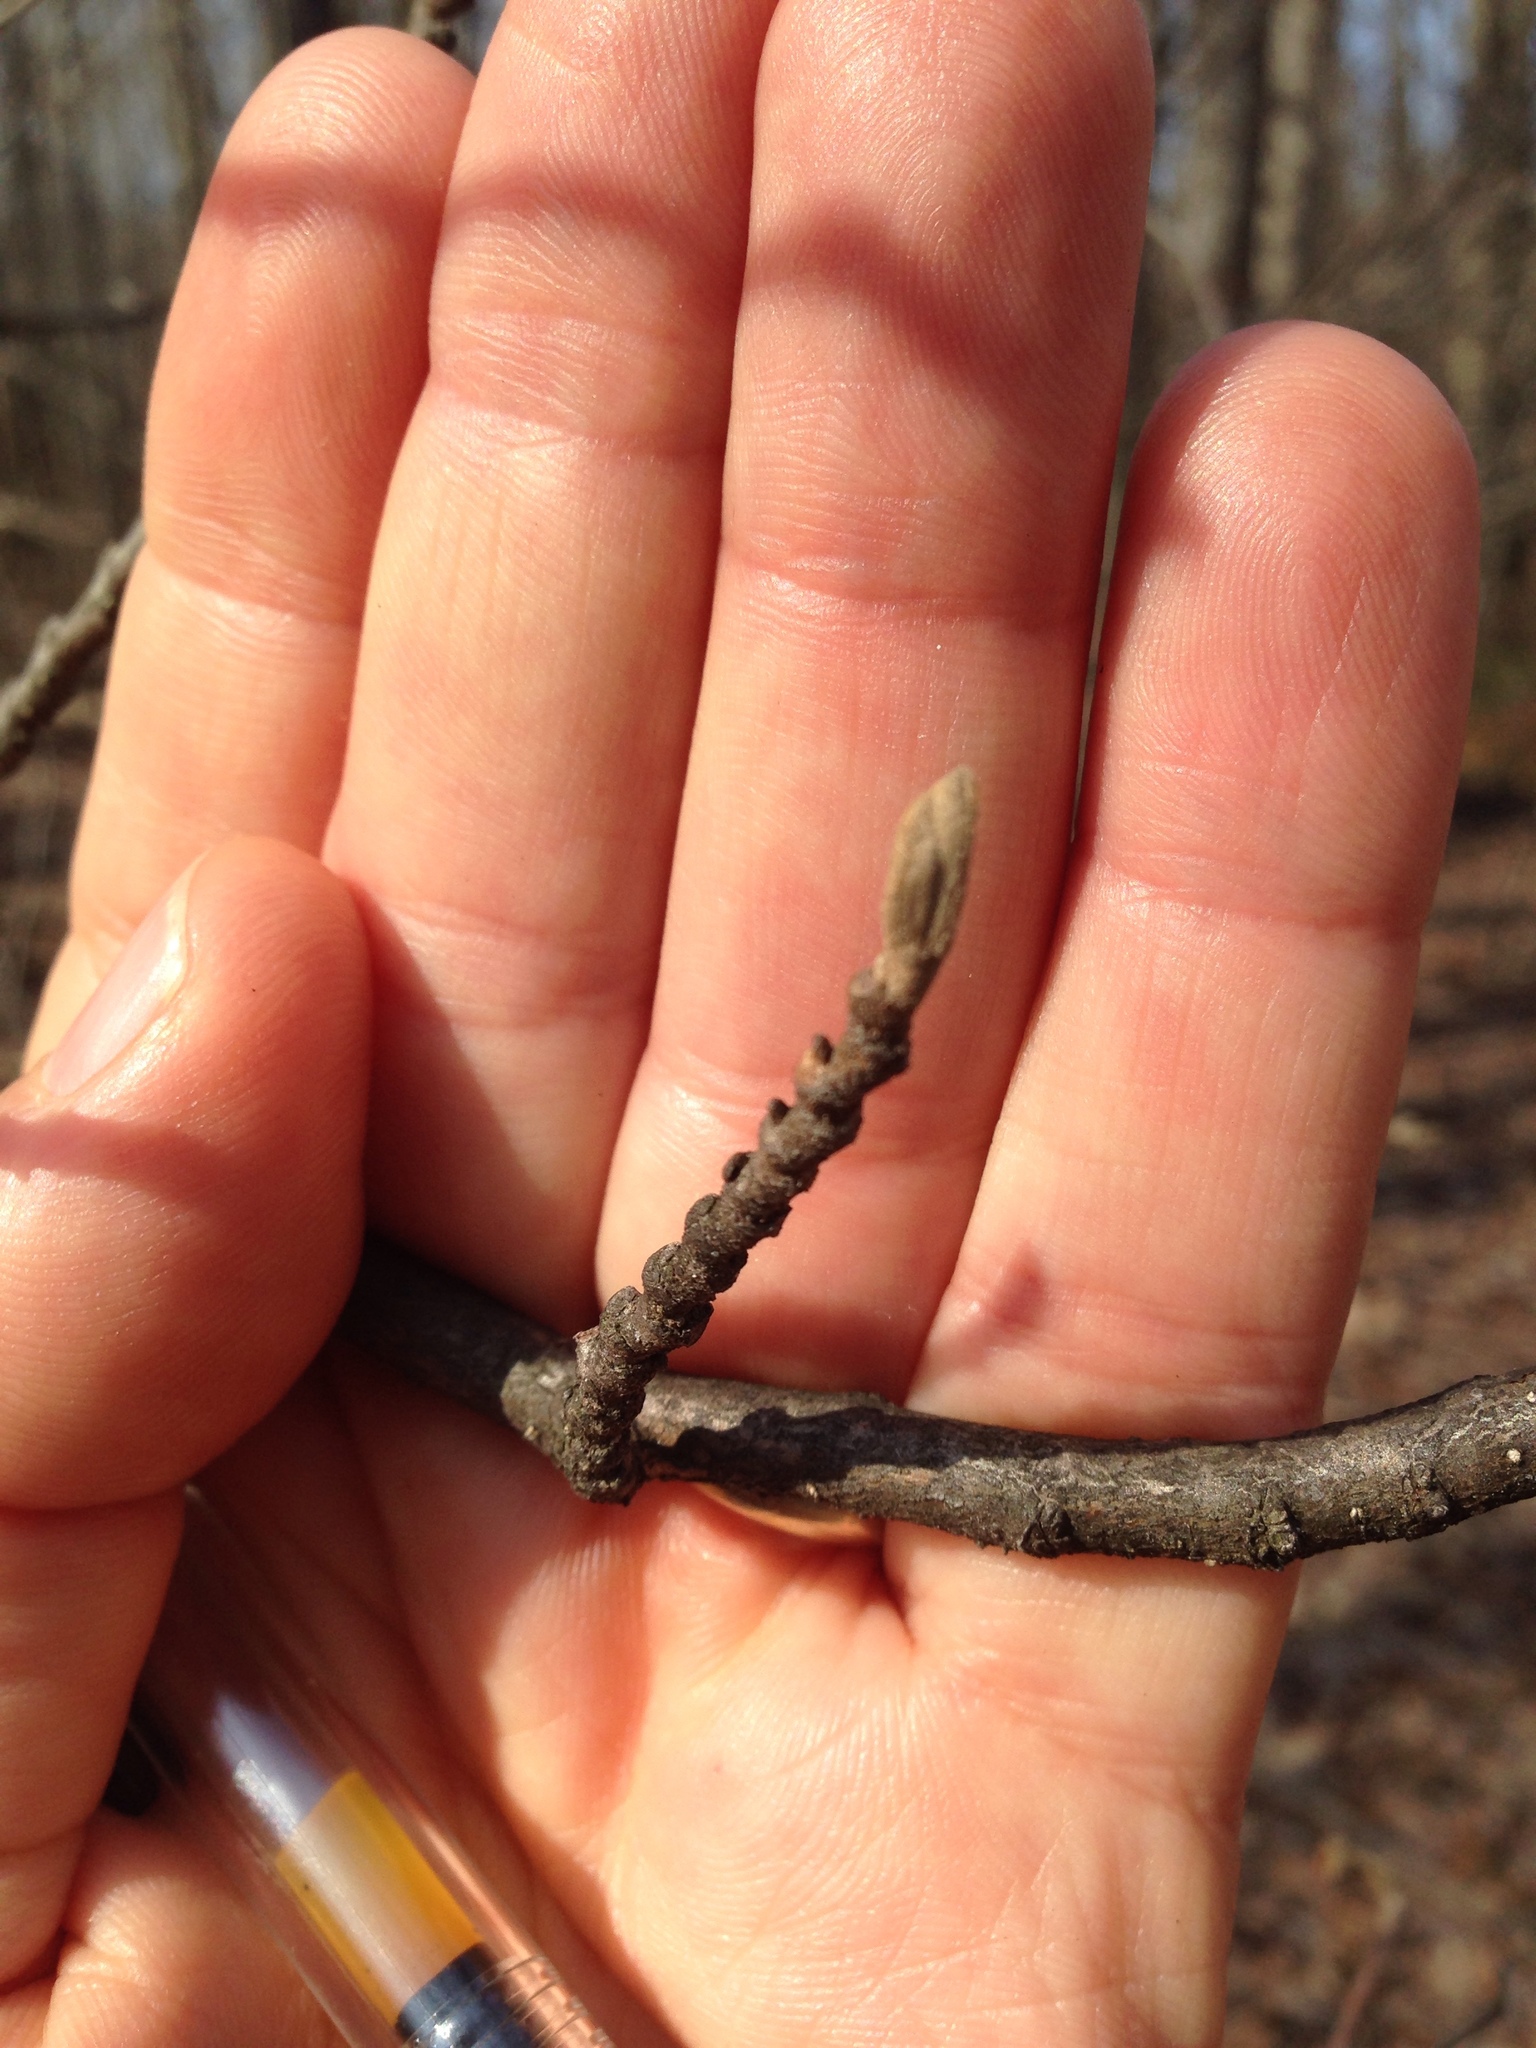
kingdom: Plantae
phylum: Tracheophyta
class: Magnoliopsida
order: Saxifragales
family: Hamamelidaceae
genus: Hamamelis
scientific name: Hamamelis virginiana
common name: Witch-hazel
